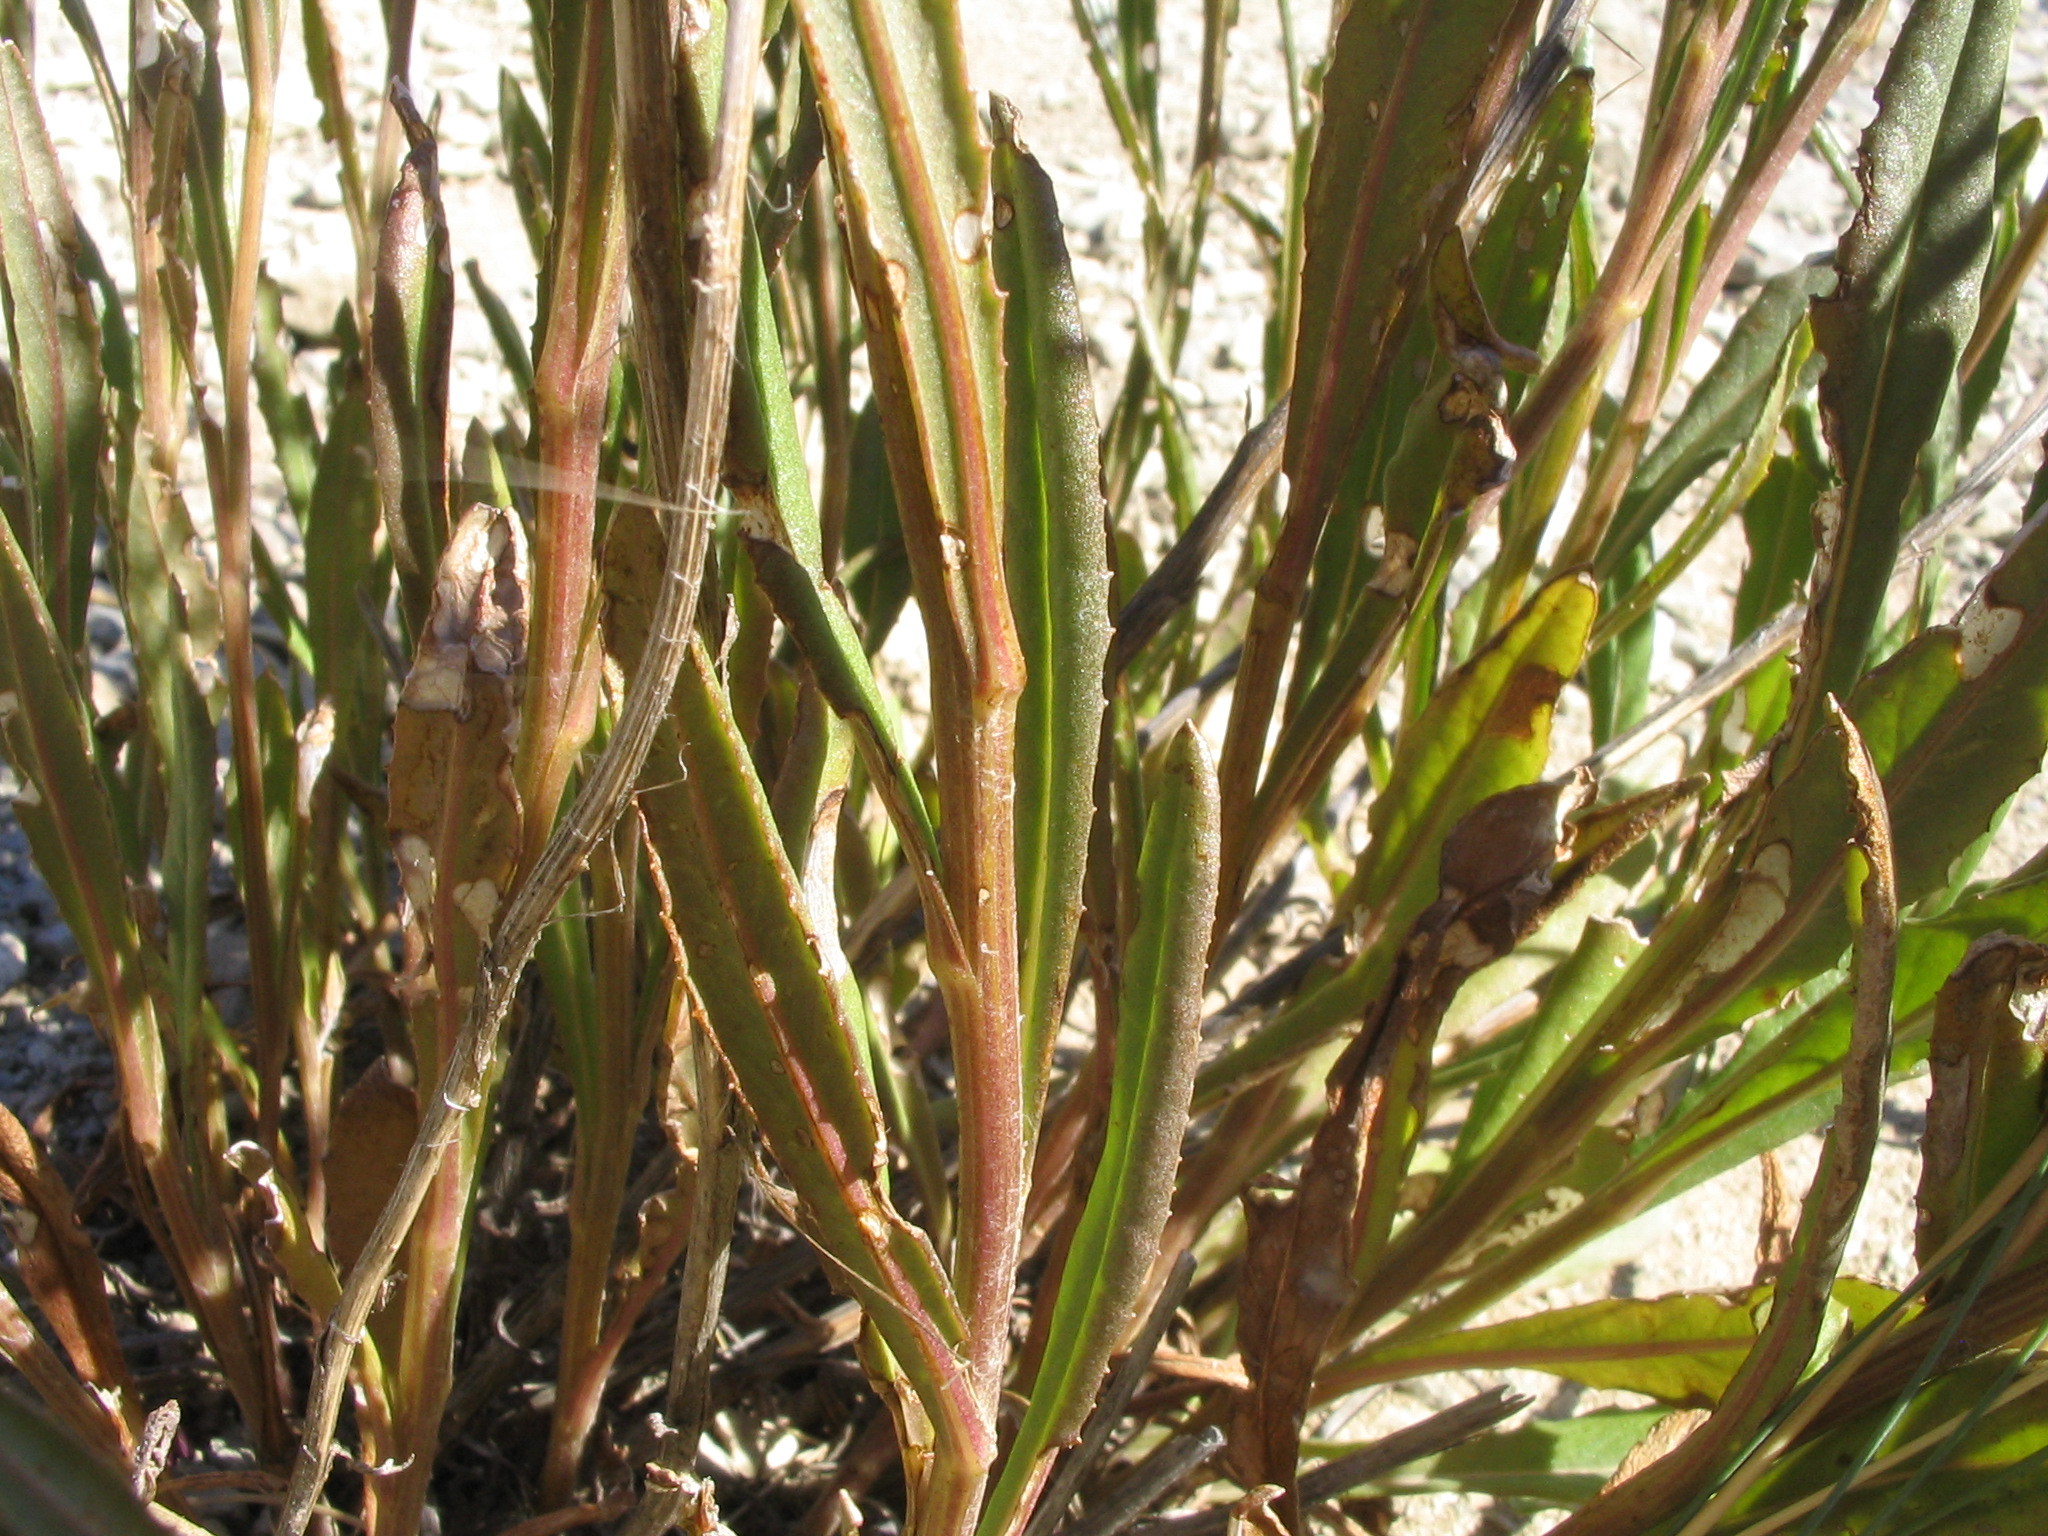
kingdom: Plantae
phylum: Tracheophyta
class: Magnoliopsida
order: Asterales
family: Asteraceae
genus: Senecio
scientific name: Senecio dunedinensis
